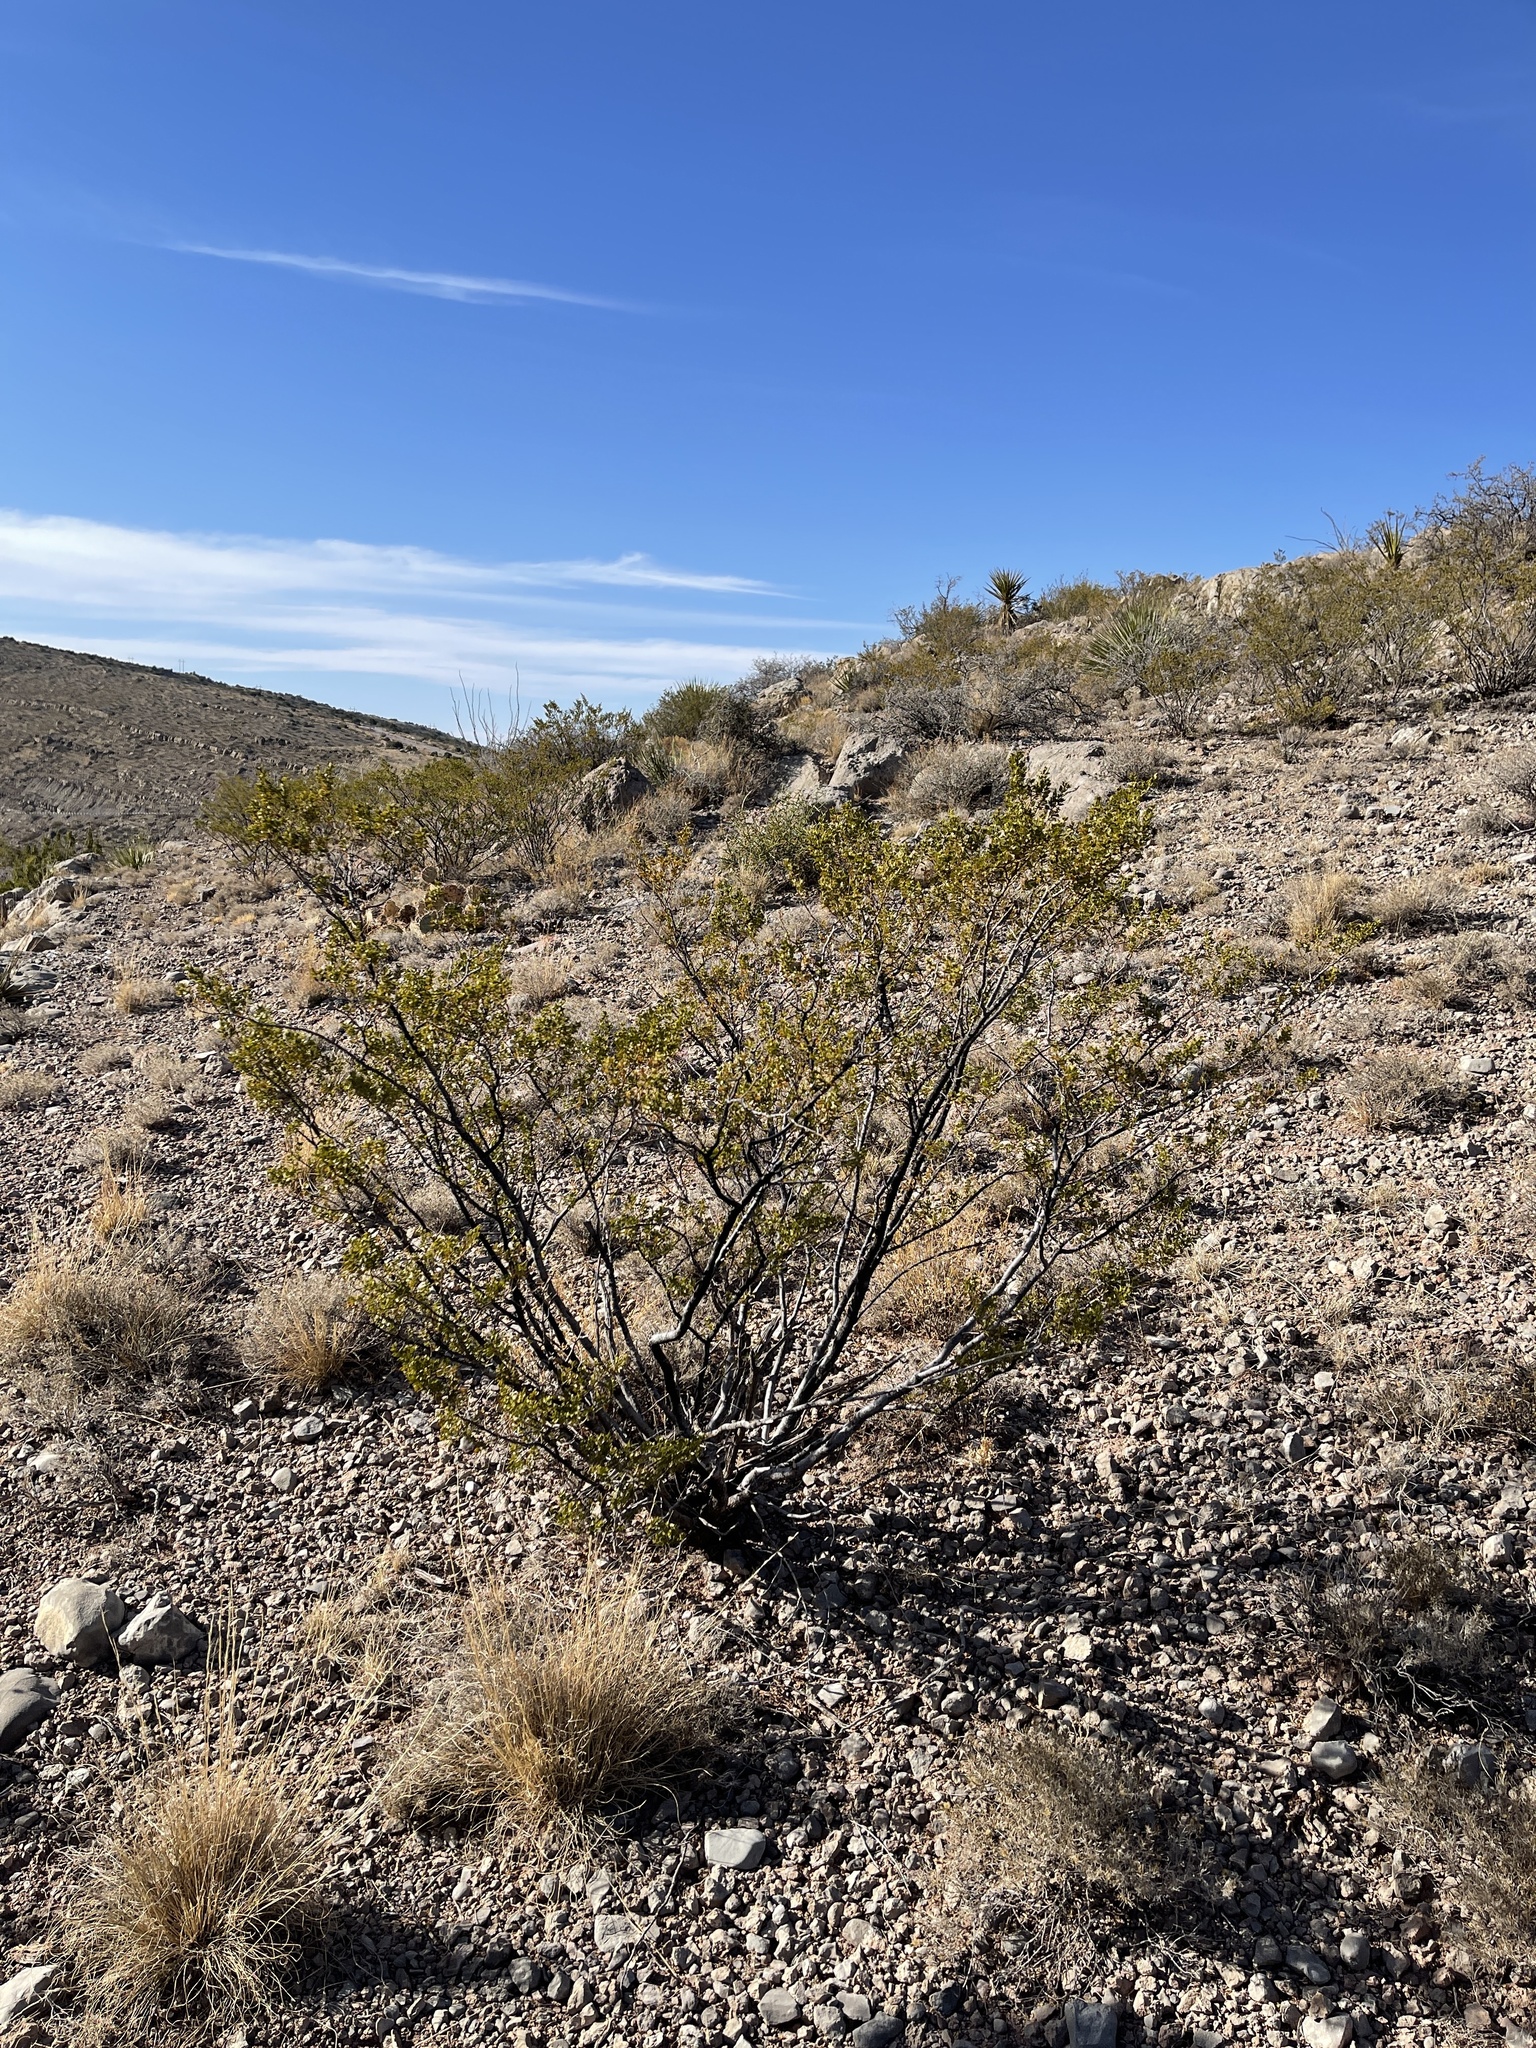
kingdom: Plantae
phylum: Tracheophyta
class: Magnoliopsida
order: Zygophyllales
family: Zygophyllaceae
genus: Larrea
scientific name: Larrea tridentata
